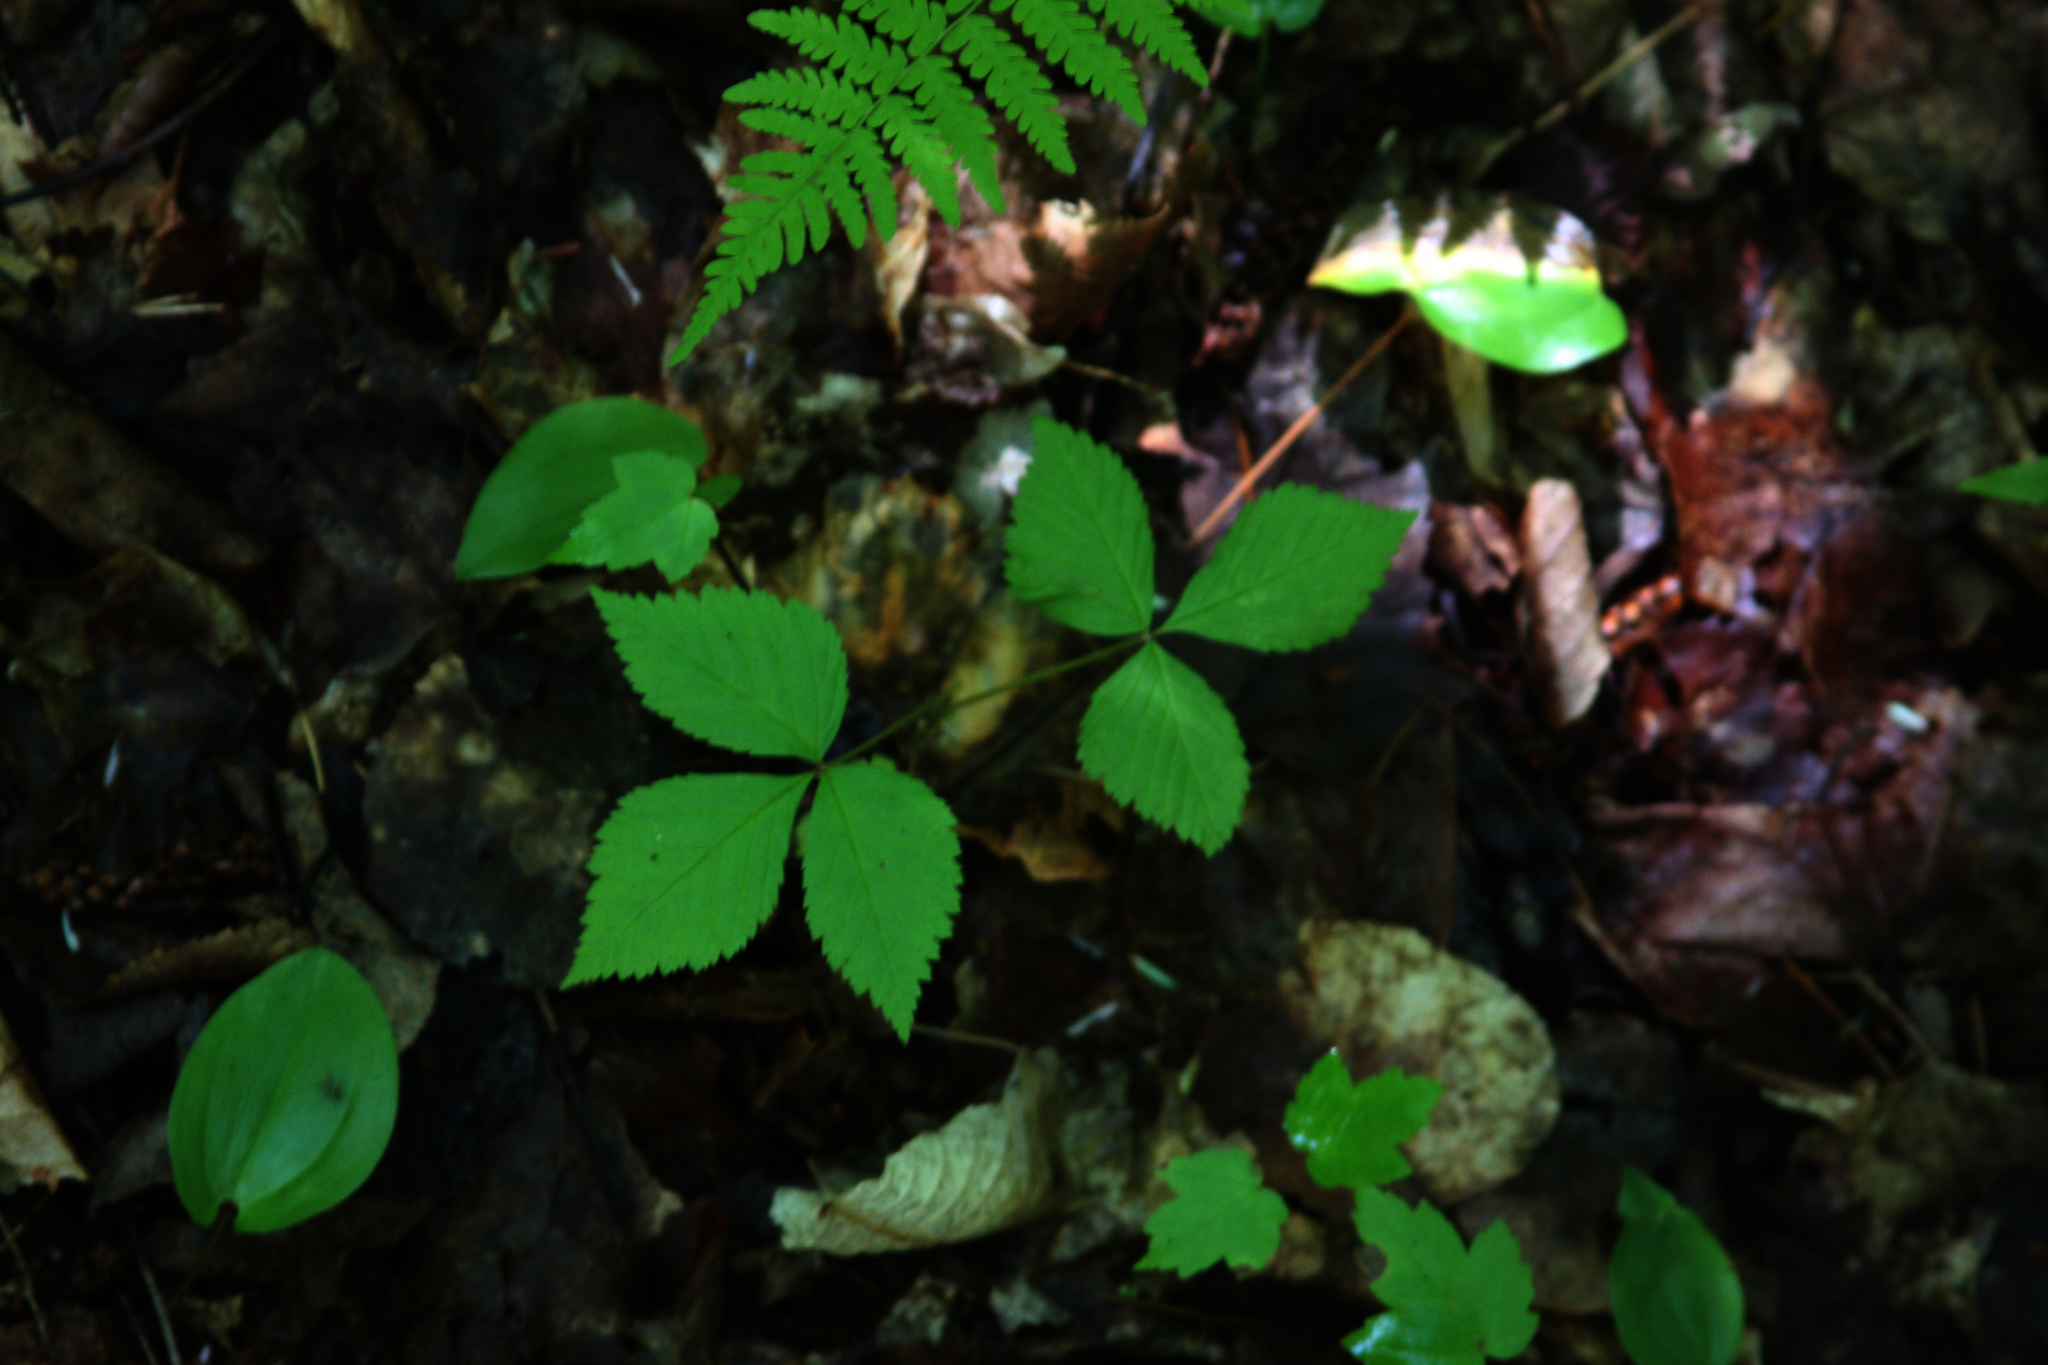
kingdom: Plantae
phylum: Tracheophyta
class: Magnoliopsida
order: Rosales
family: Rosaceae
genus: Rubus
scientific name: Rubus pubescens
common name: Dwarf raspberry
